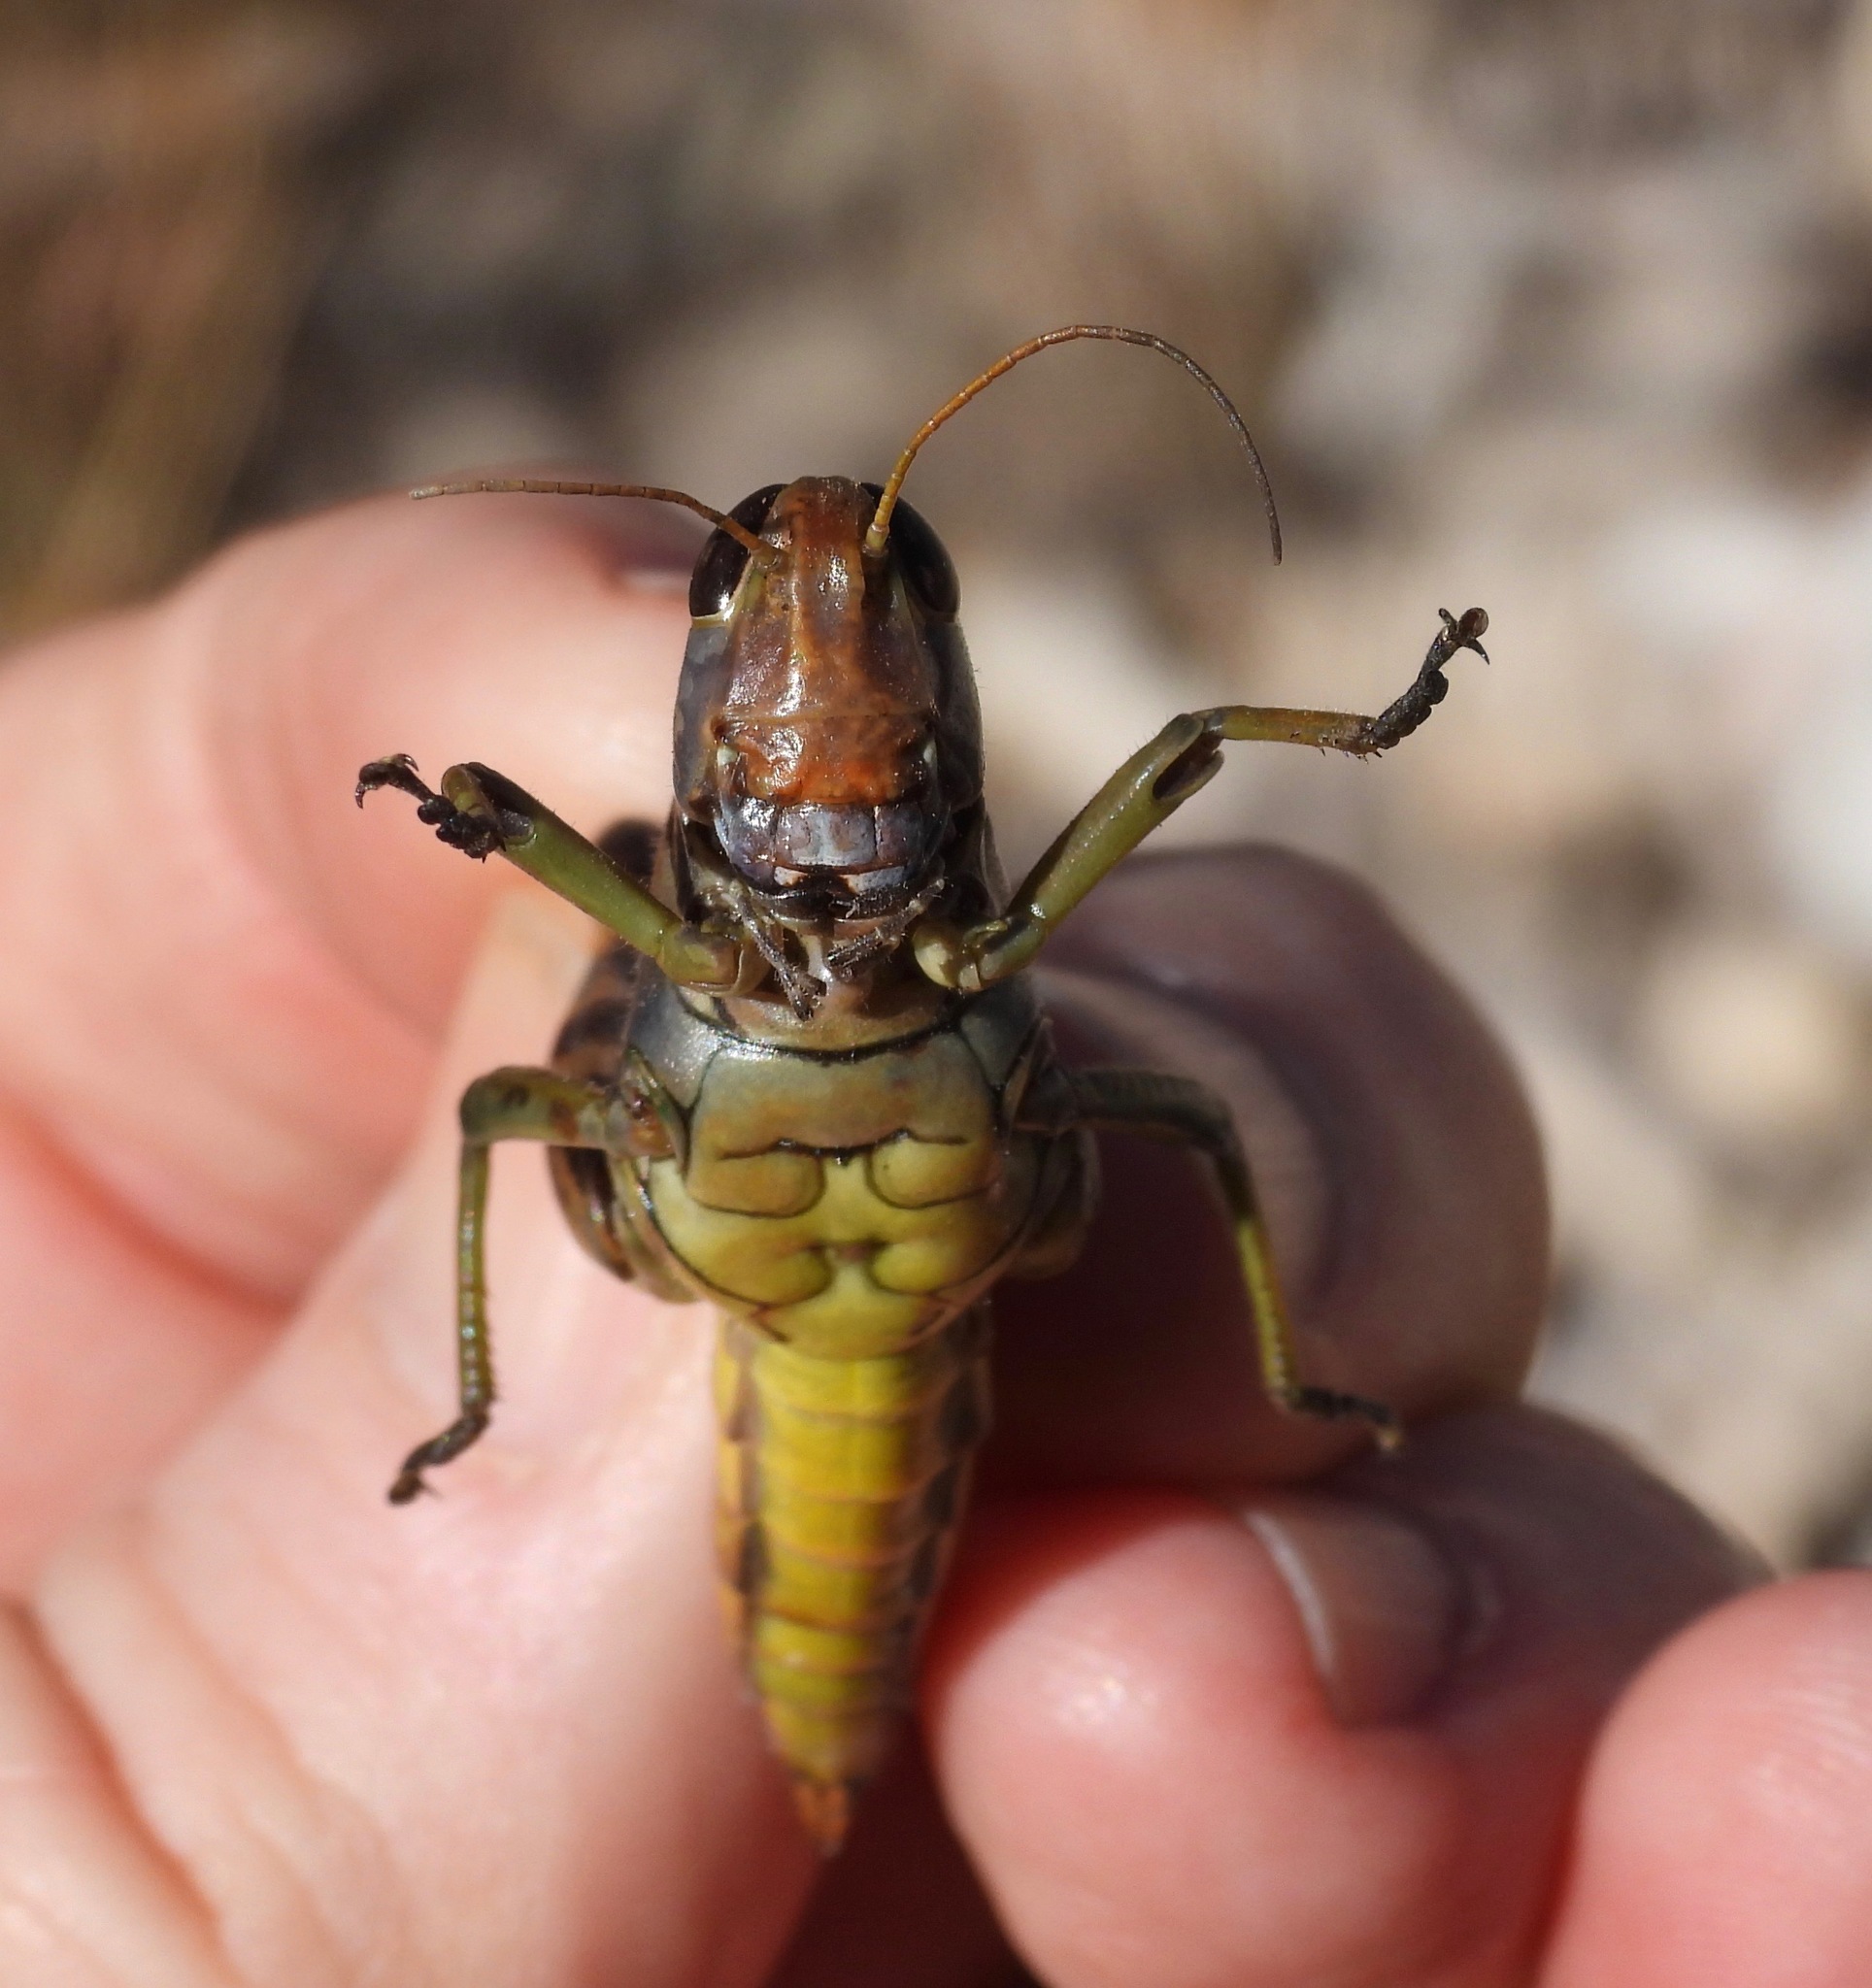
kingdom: Animalia
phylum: Arthropoda
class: Insecta
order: Orthoptera
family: Acrididae
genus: Melanoplus
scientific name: Melanoplus eumera
